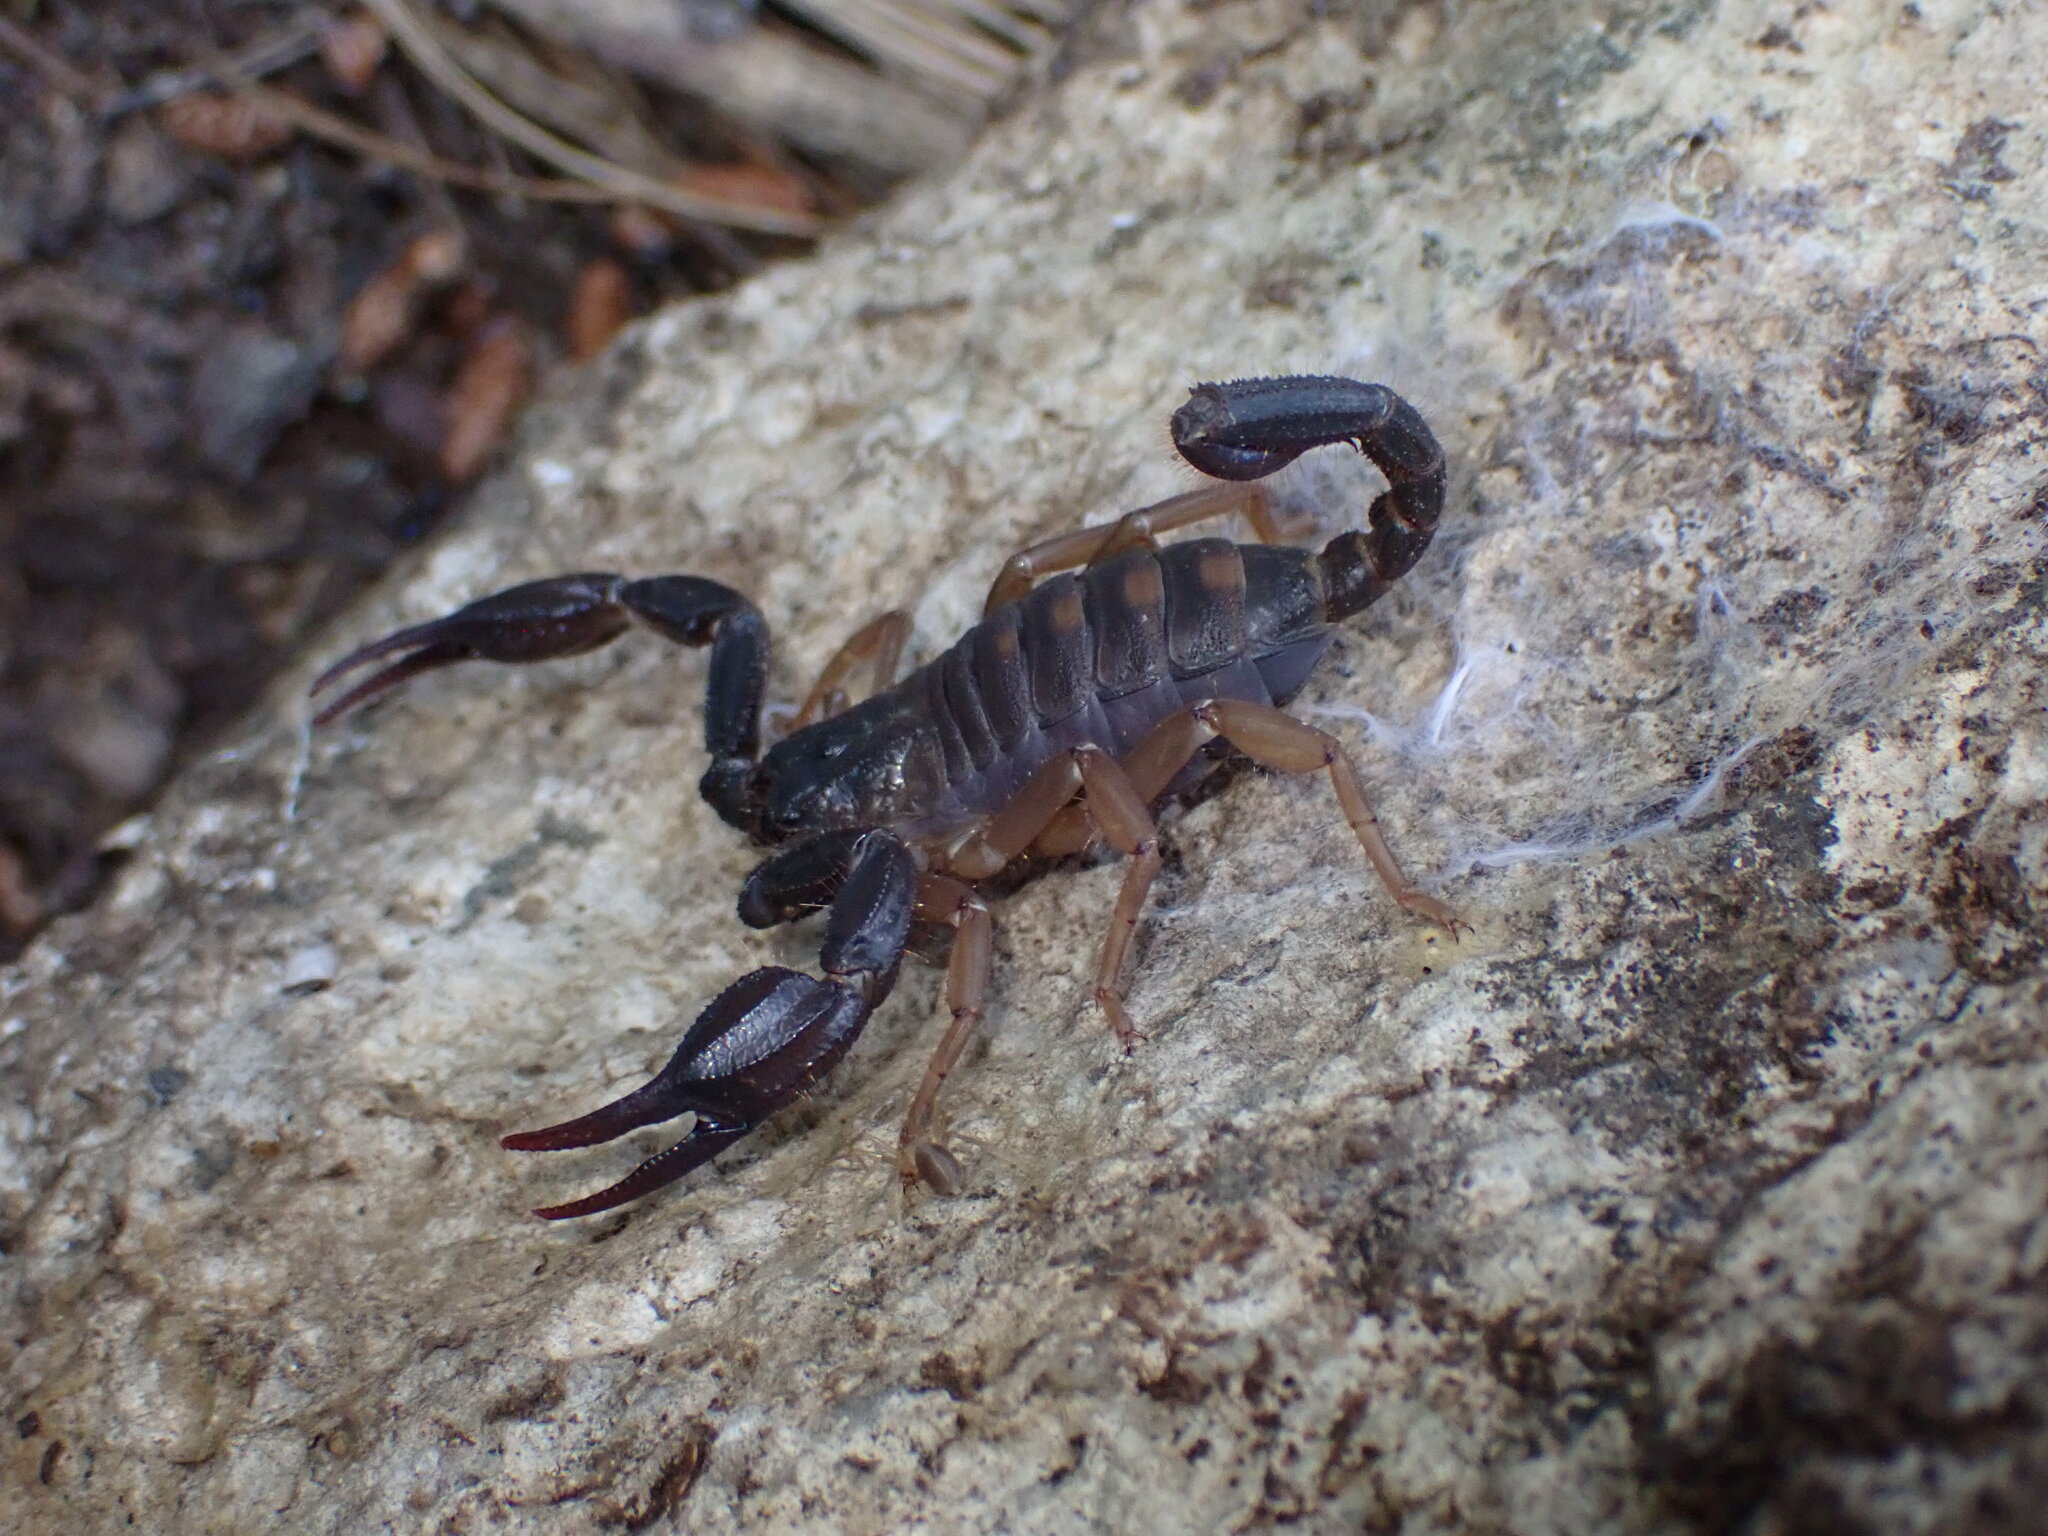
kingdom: Animalia
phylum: Arthropoda
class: Arachnida
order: Scorpiones
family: Iuridae
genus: Anatoliurus
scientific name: Anatoliurus kraepelini
